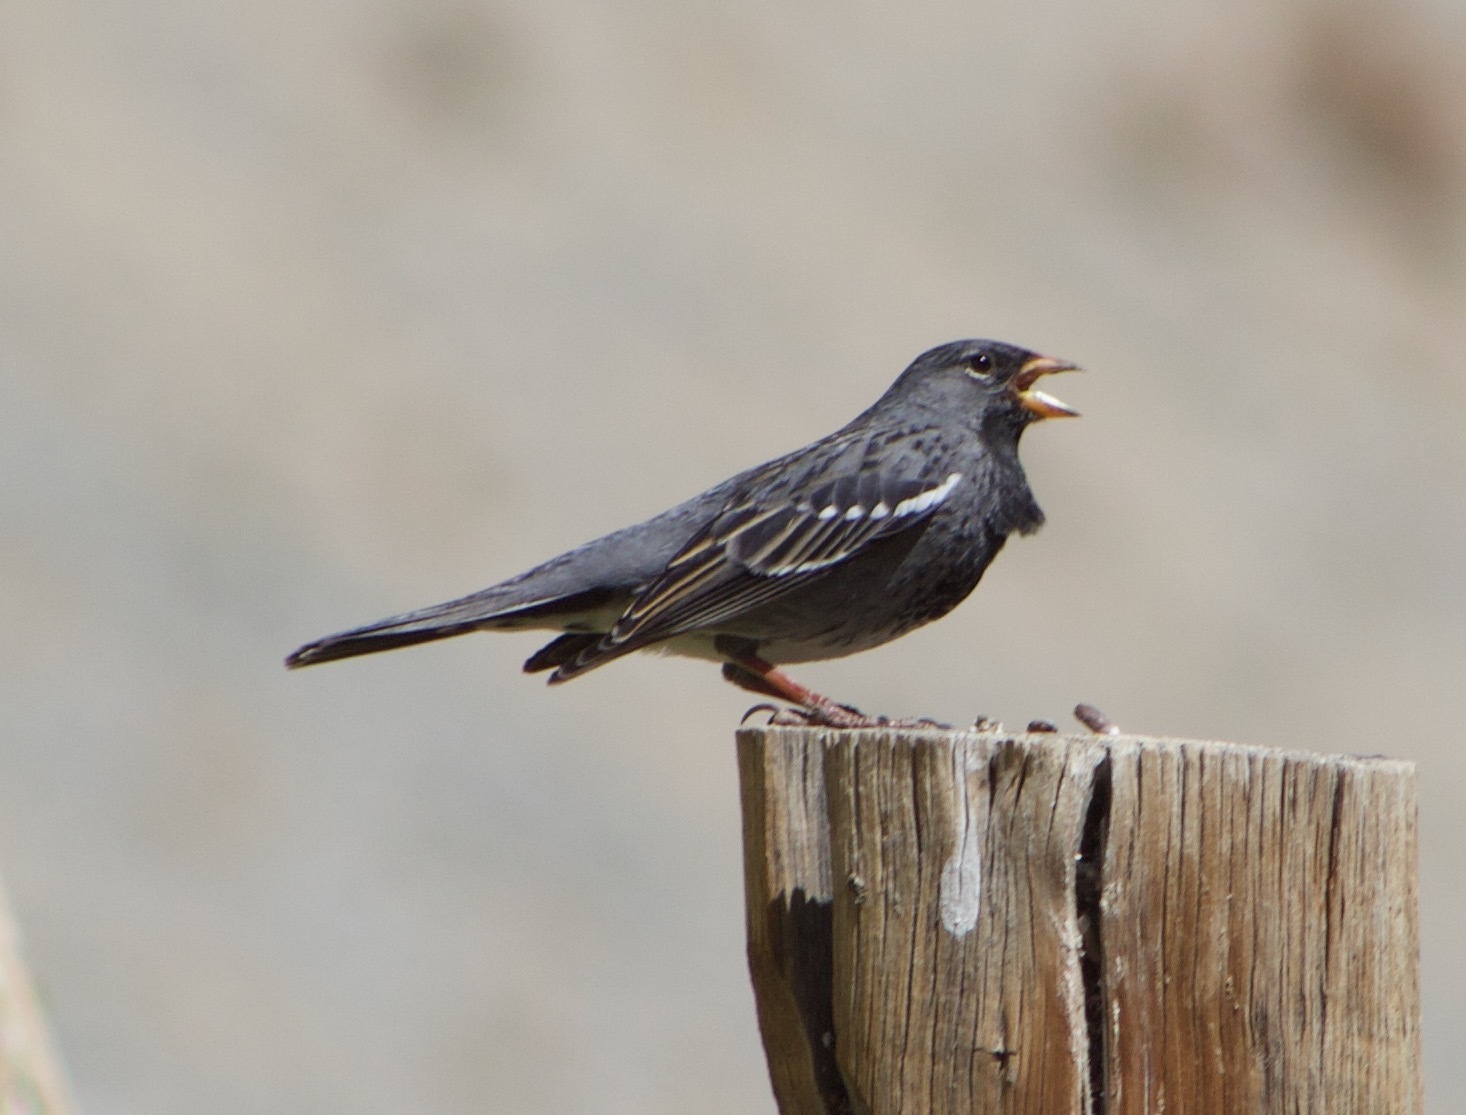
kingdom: Animalia
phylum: Chordata
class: Aves
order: Passeriformes
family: Thraupidae
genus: Rhopospina
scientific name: Rhopospina fruticeti
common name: Mourning sierra finch
